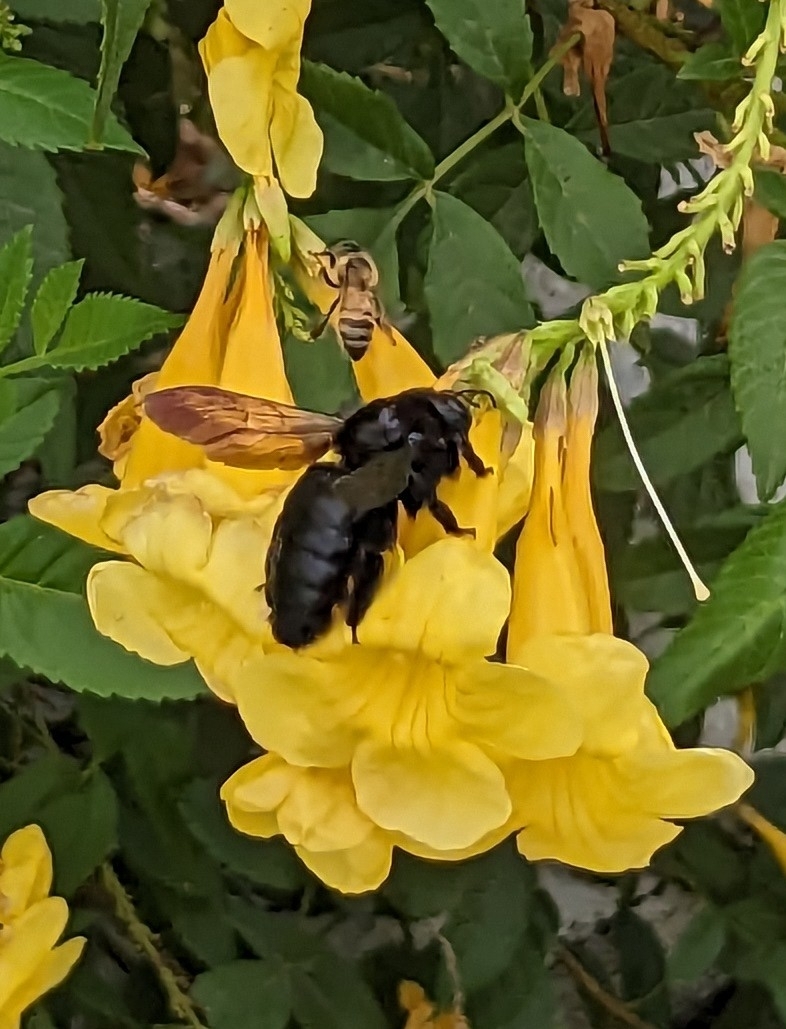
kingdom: Animalia
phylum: Arthropoda
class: Insecta
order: Hymenoptera
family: Apidae
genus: Xylocopa
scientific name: Xylocopa sonorina
